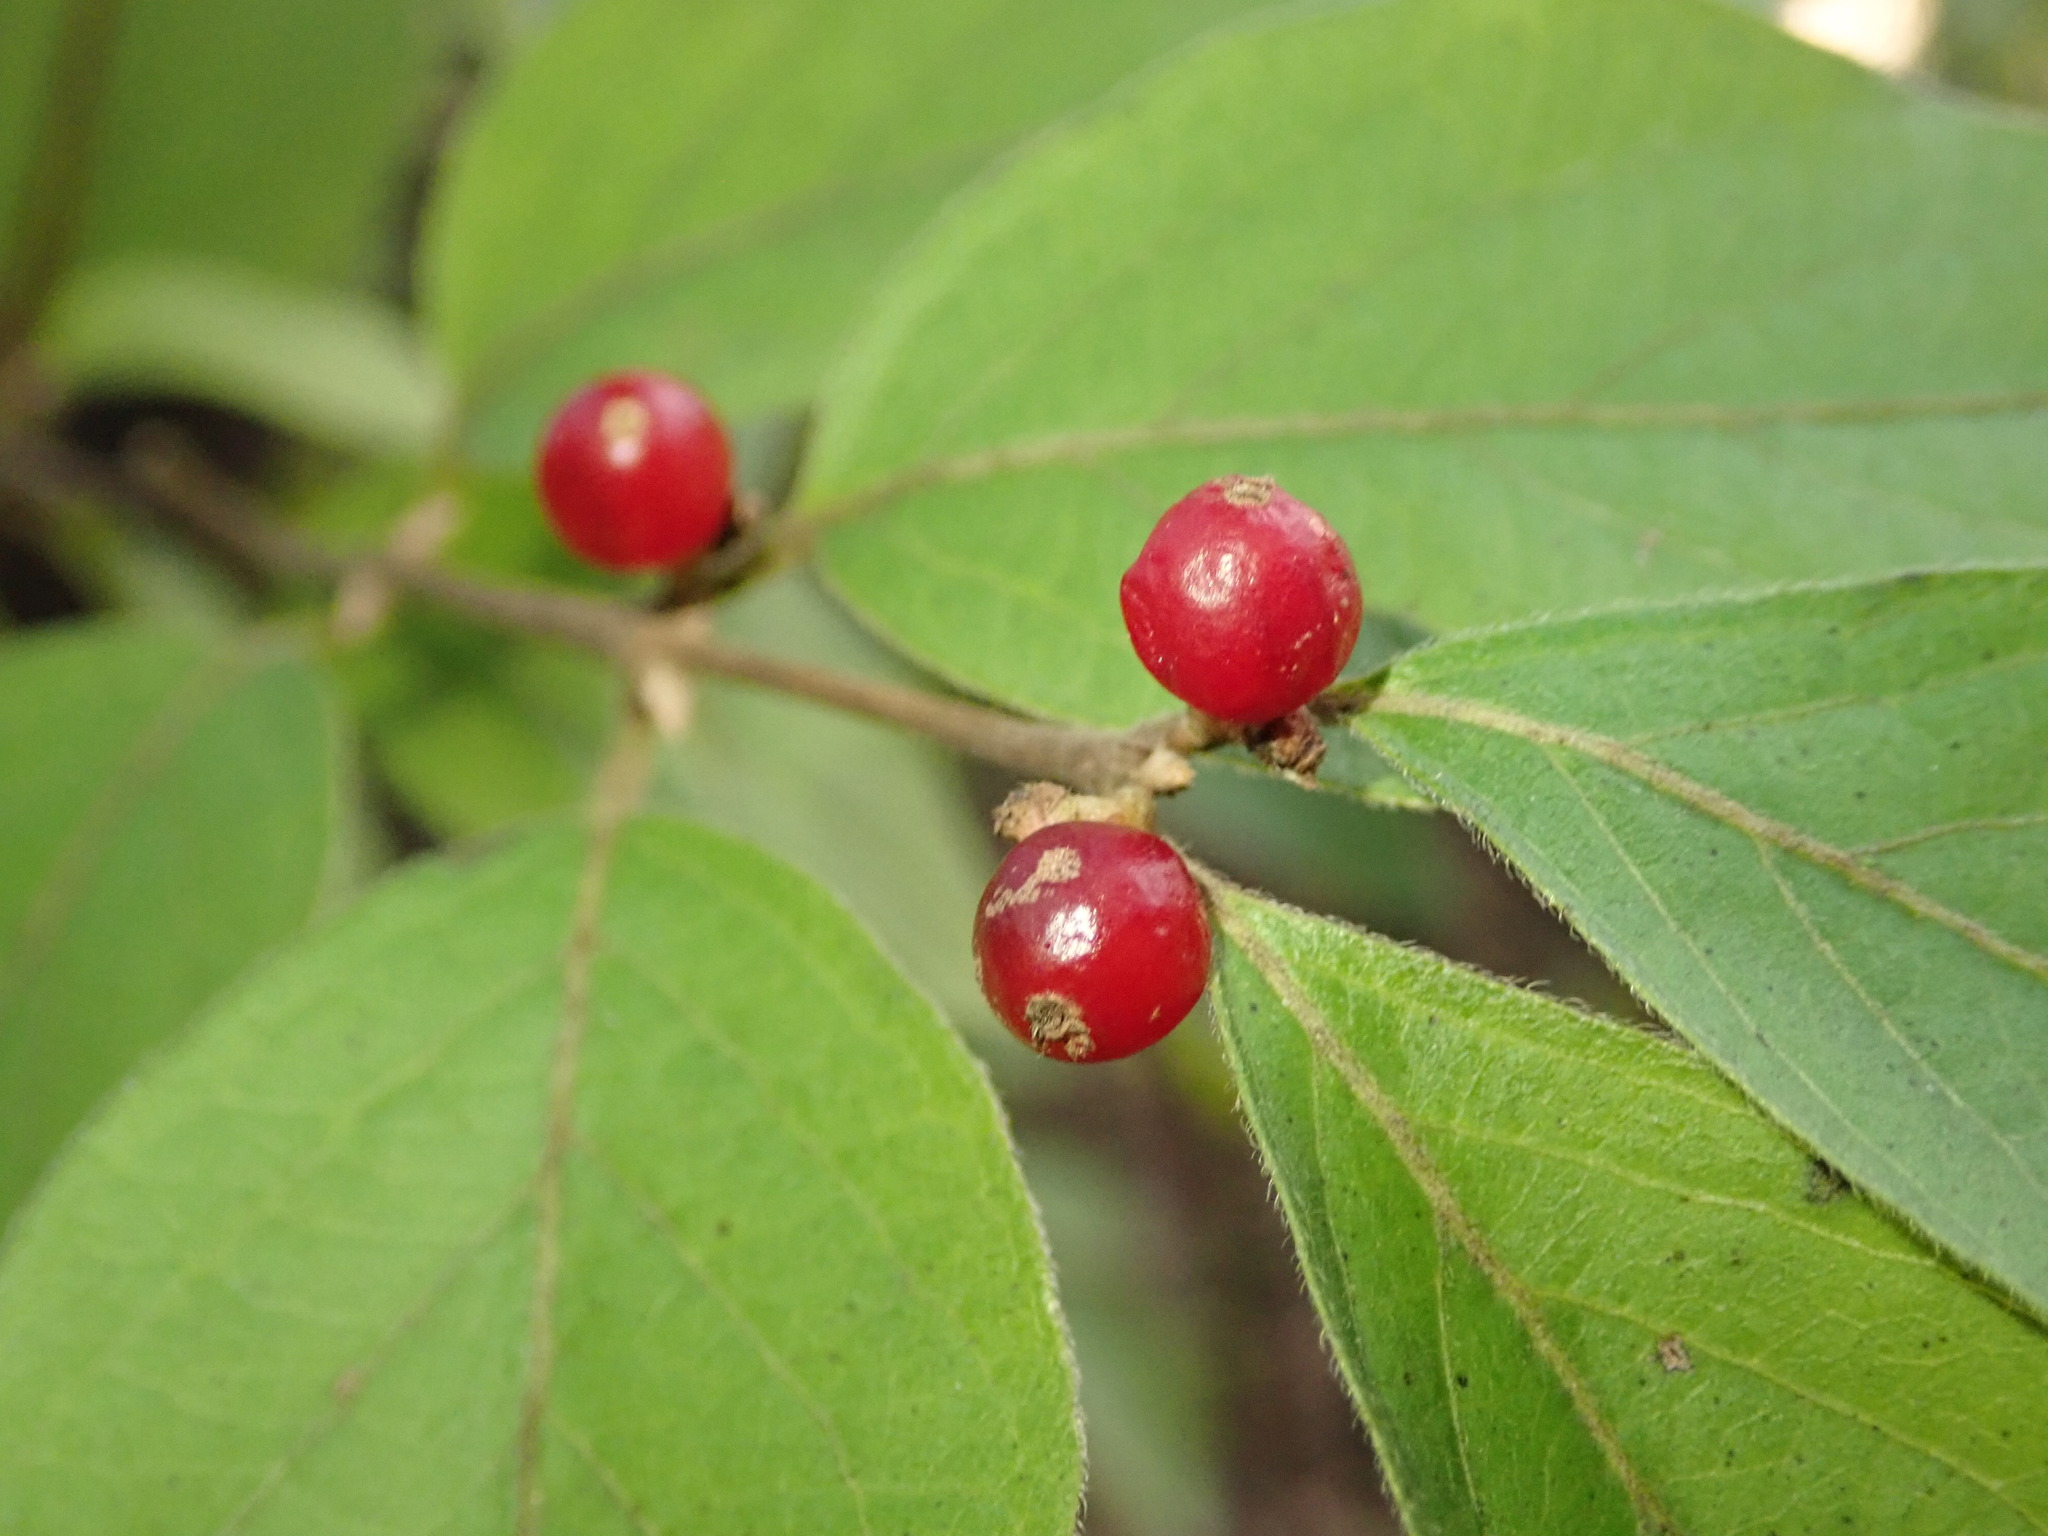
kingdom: Plantae
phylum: Tracheophyta
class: Magnoliopsida
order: Dipsacales
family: Caprifoliaceae
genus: Lonicera
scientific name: Lonicera maackii
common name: Amur honeysuckle
